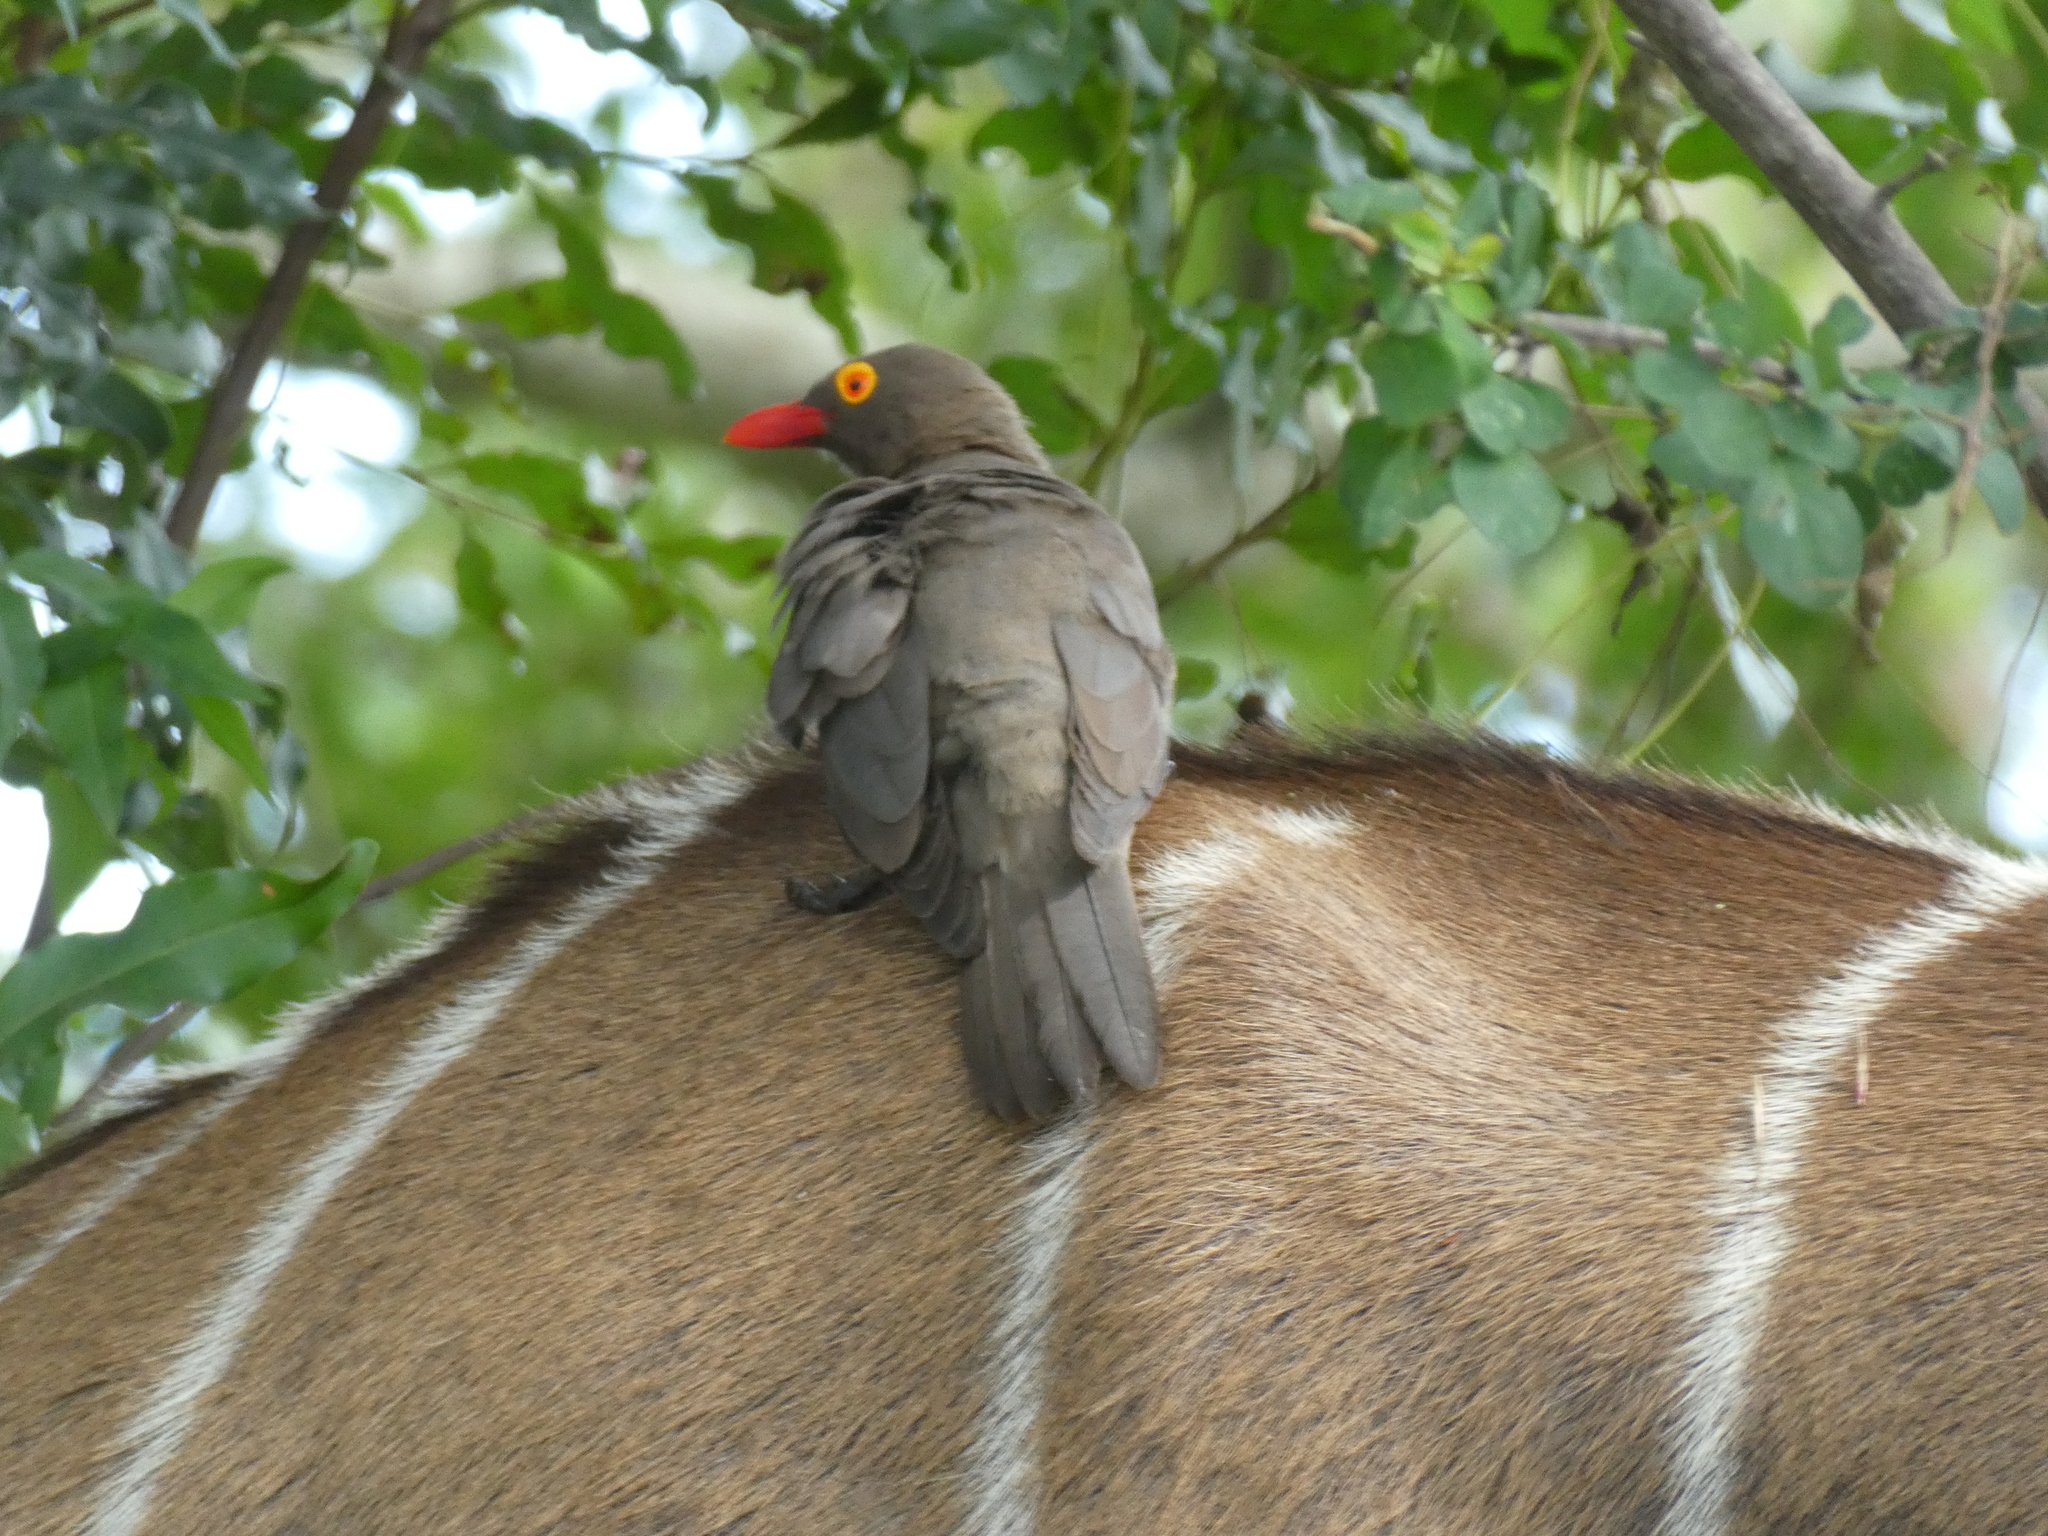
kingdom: Animalia
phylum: Chordata
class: Aves
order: Passeriformes
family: Buphagidae
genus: Buphagus
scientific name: Buphagus erythrorhynchus
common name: Red-billed oxpecker
